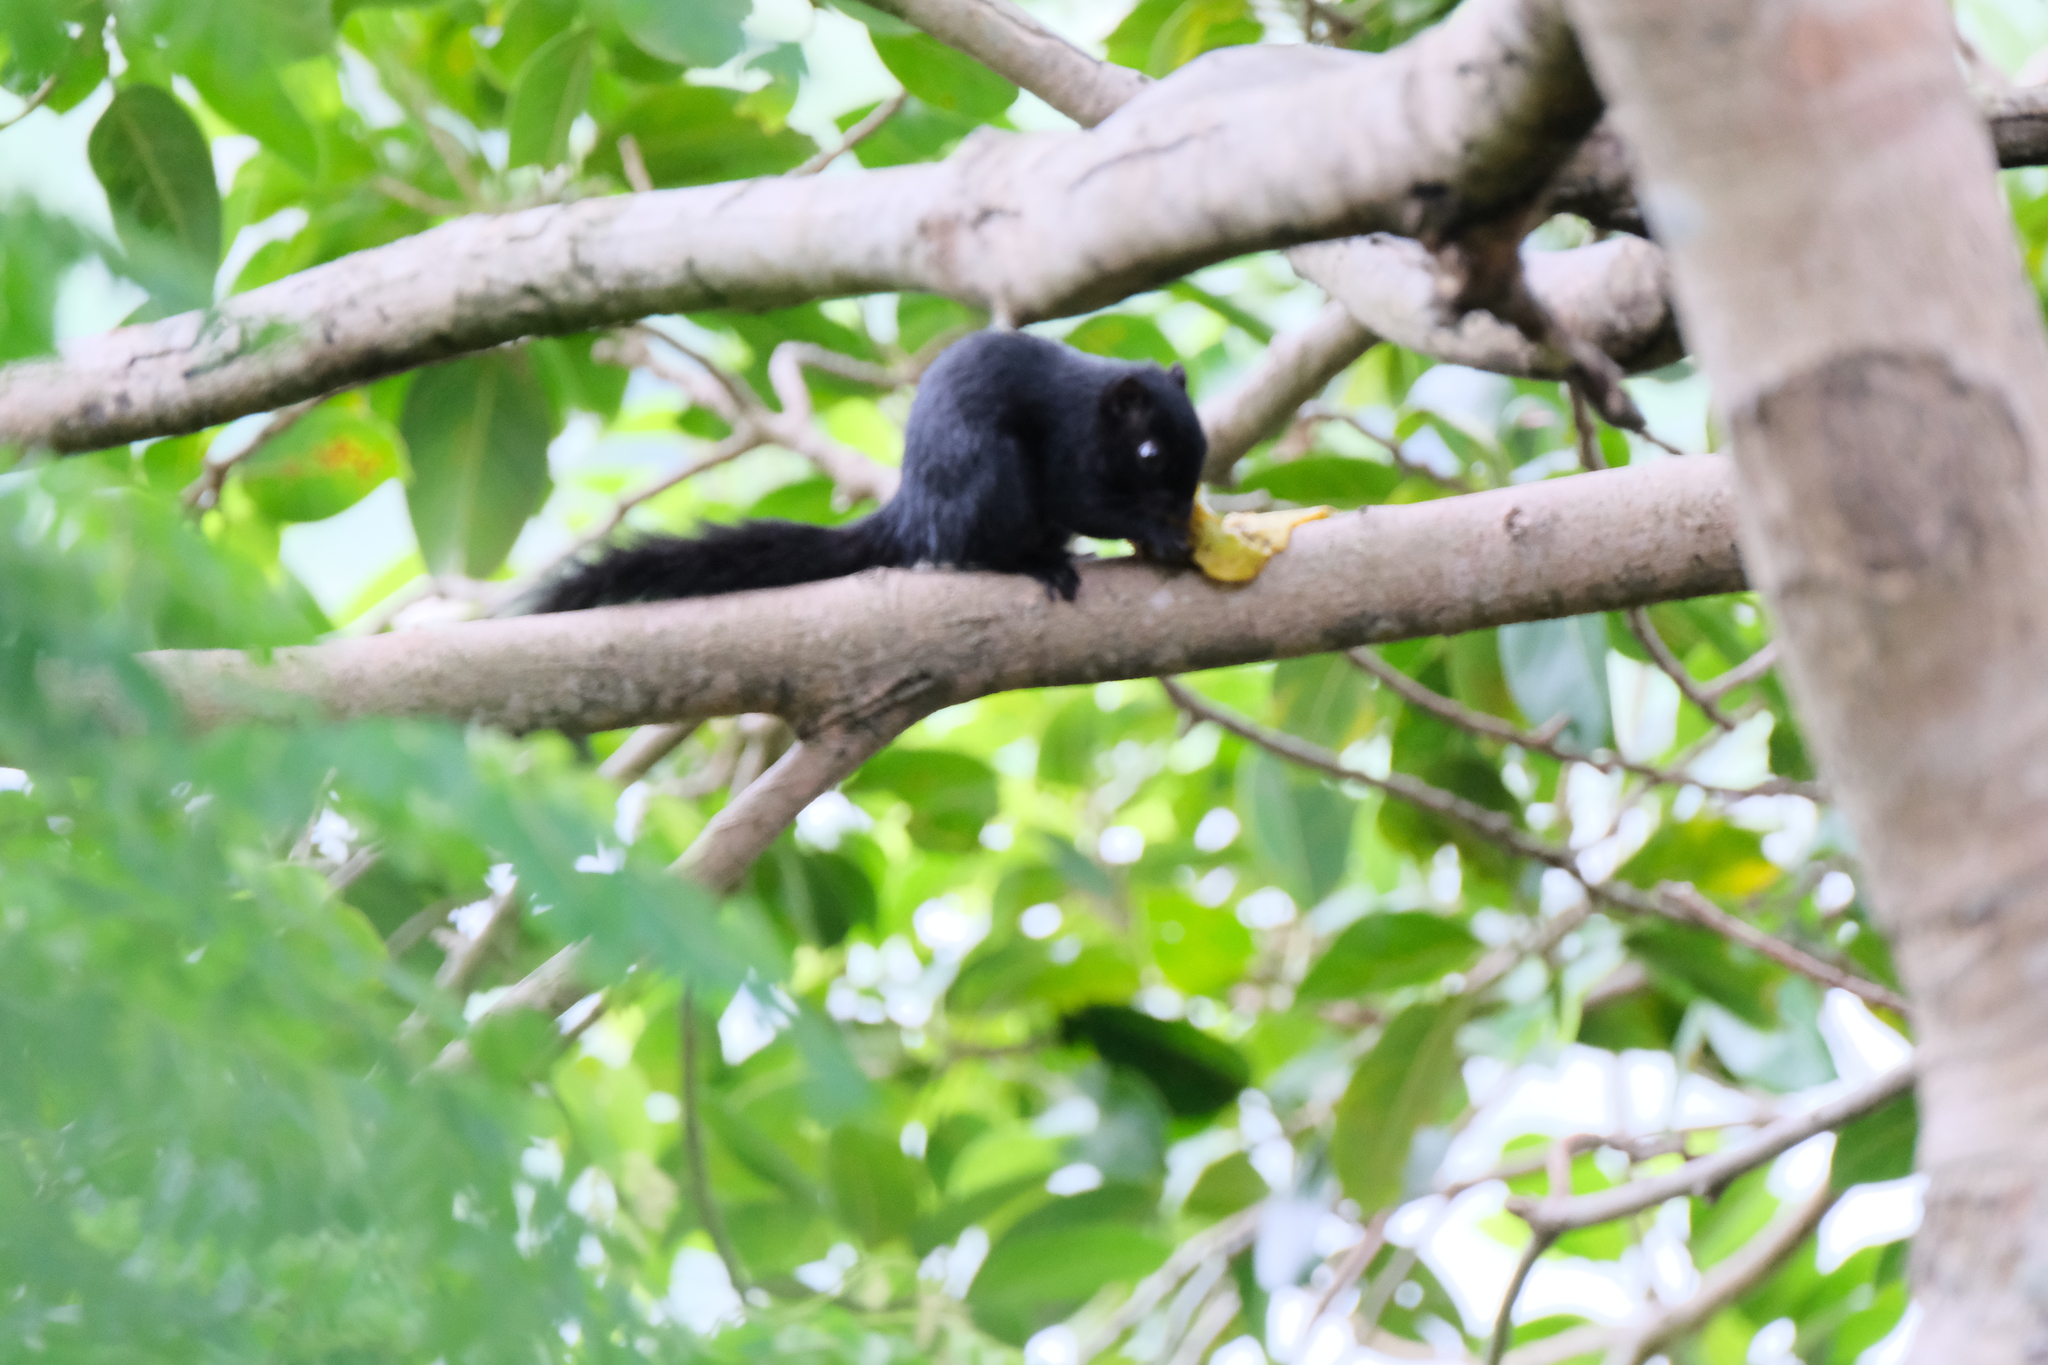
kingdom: Animalia
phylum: Chordata
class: Mammalia
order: Rodentia
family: Sciuridae
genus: Callosciurus
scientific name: Callosciurus finlaysonii
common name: Finlayson's squirrel
